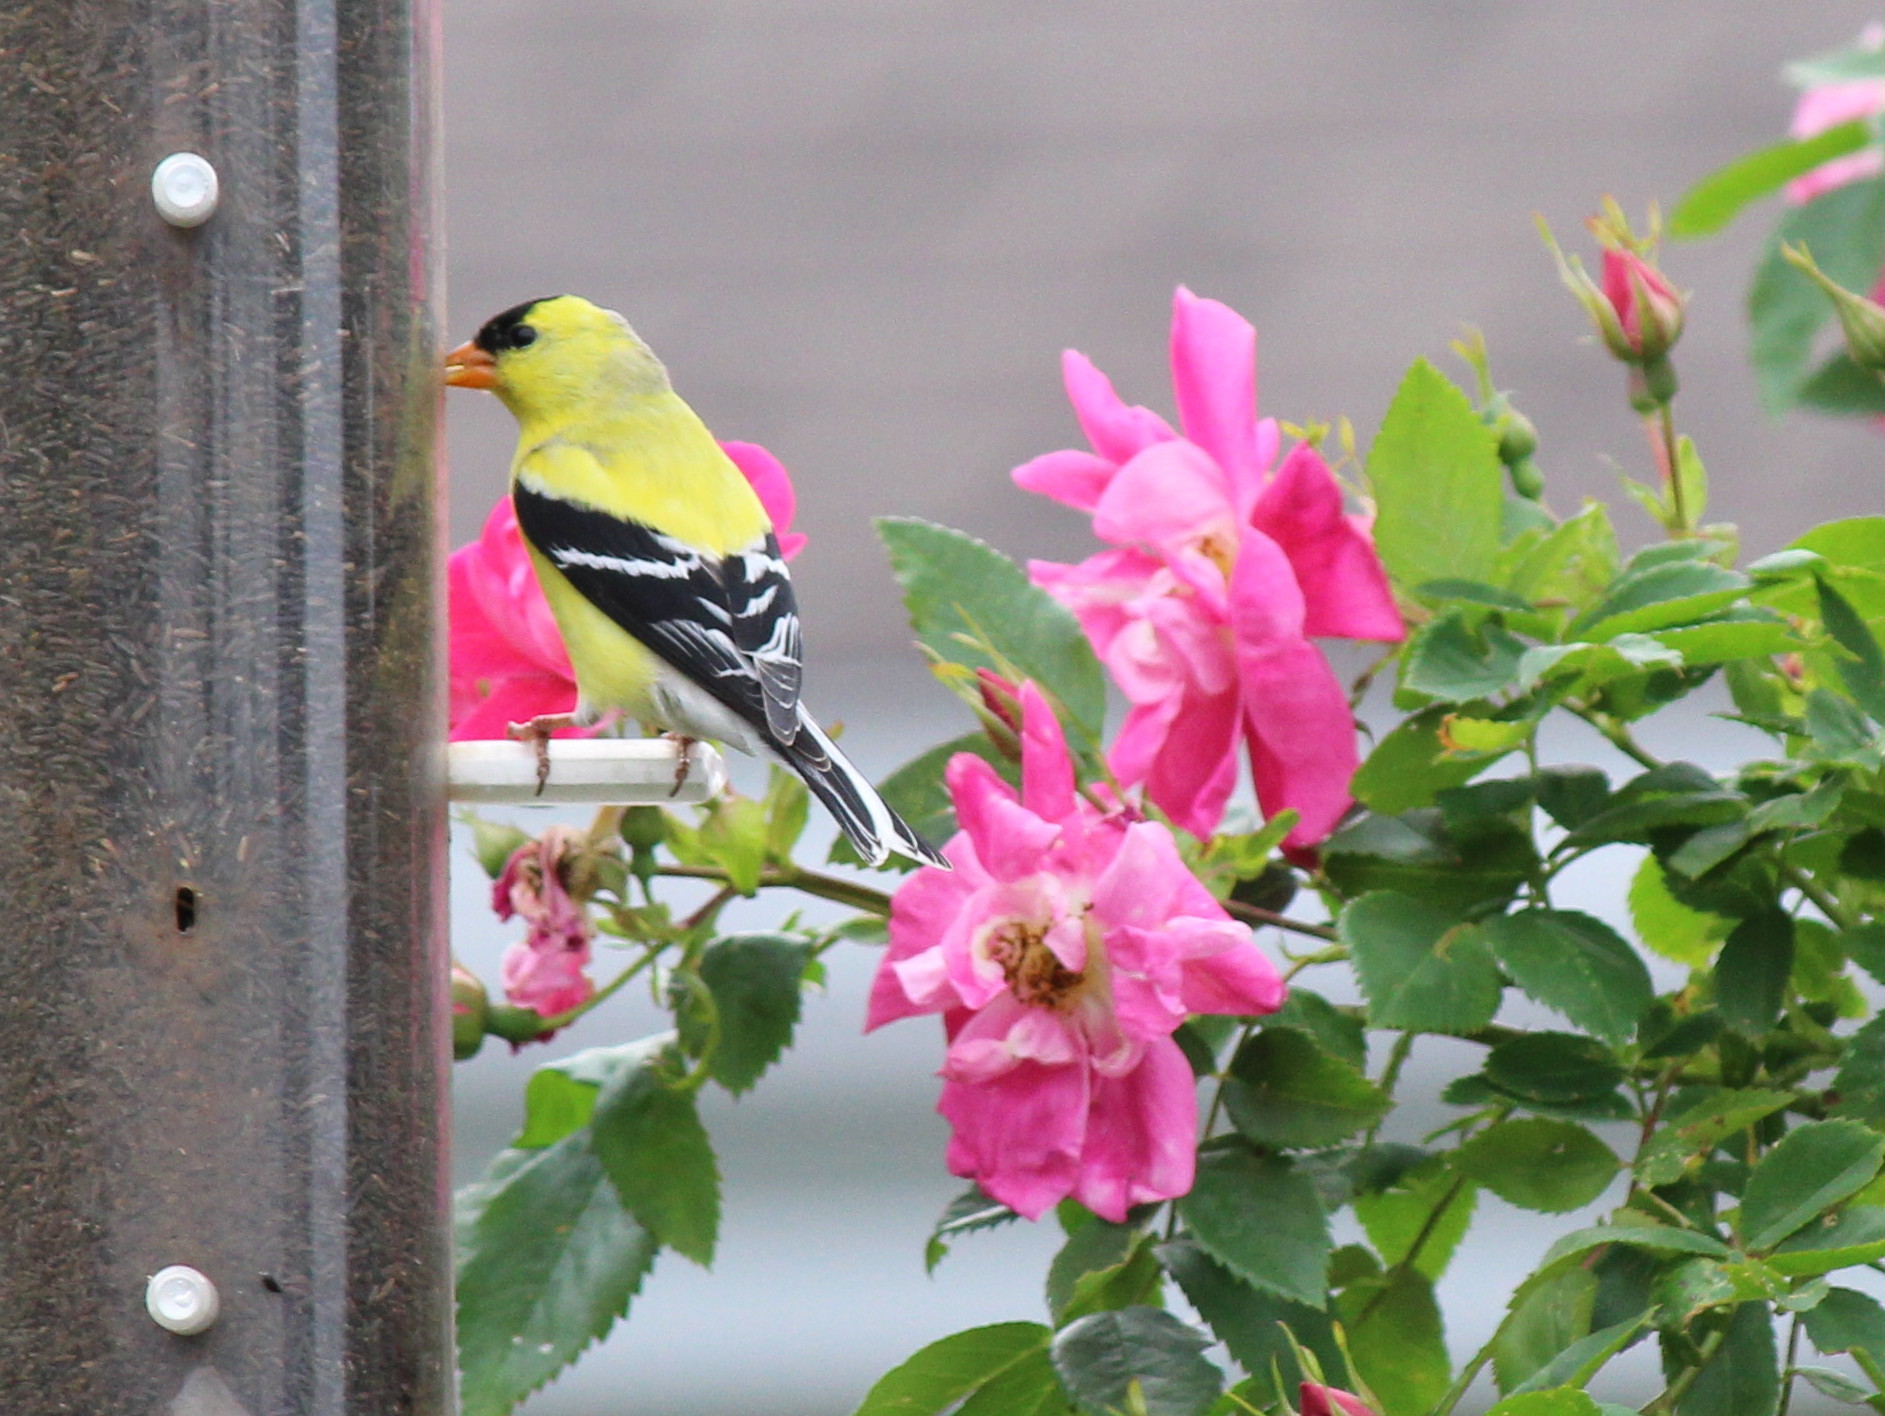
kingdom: Animalia
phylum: Chordata
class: Aves
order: Passeriformes
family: Fringillidae
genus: Spinus
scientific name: Spinus tristis
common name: American goldfinch
